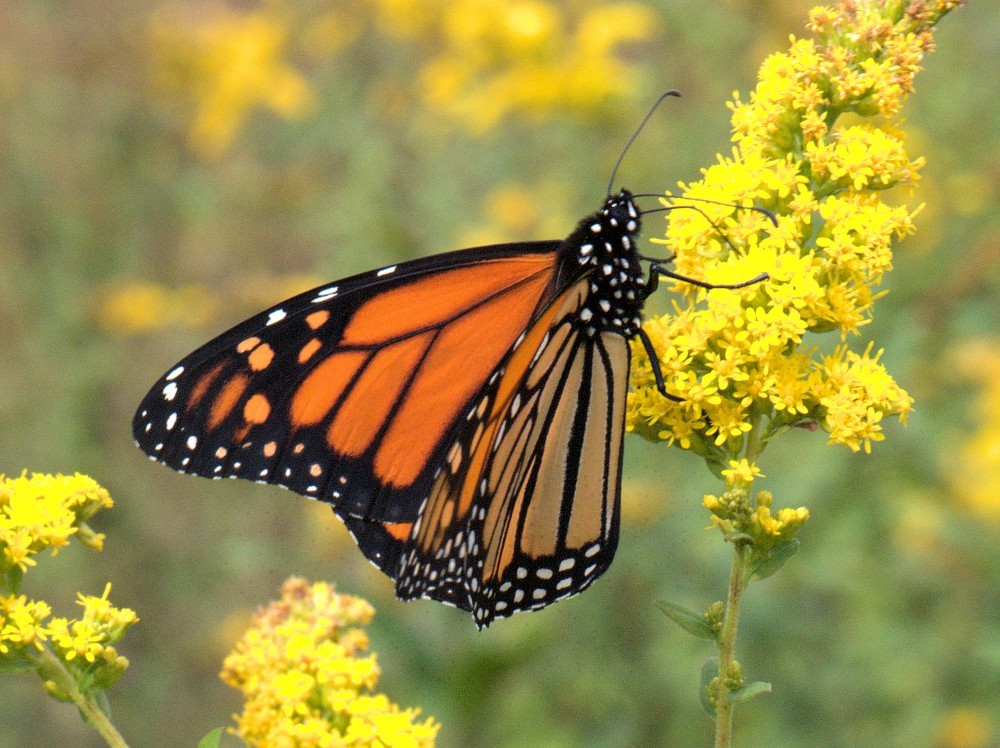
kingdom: Animalia
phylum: Arthropoda
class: Insecta
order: Lepidoptera
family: Nymphalidae
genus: Danaus
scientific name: Danaus plexippus
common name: Monarch
